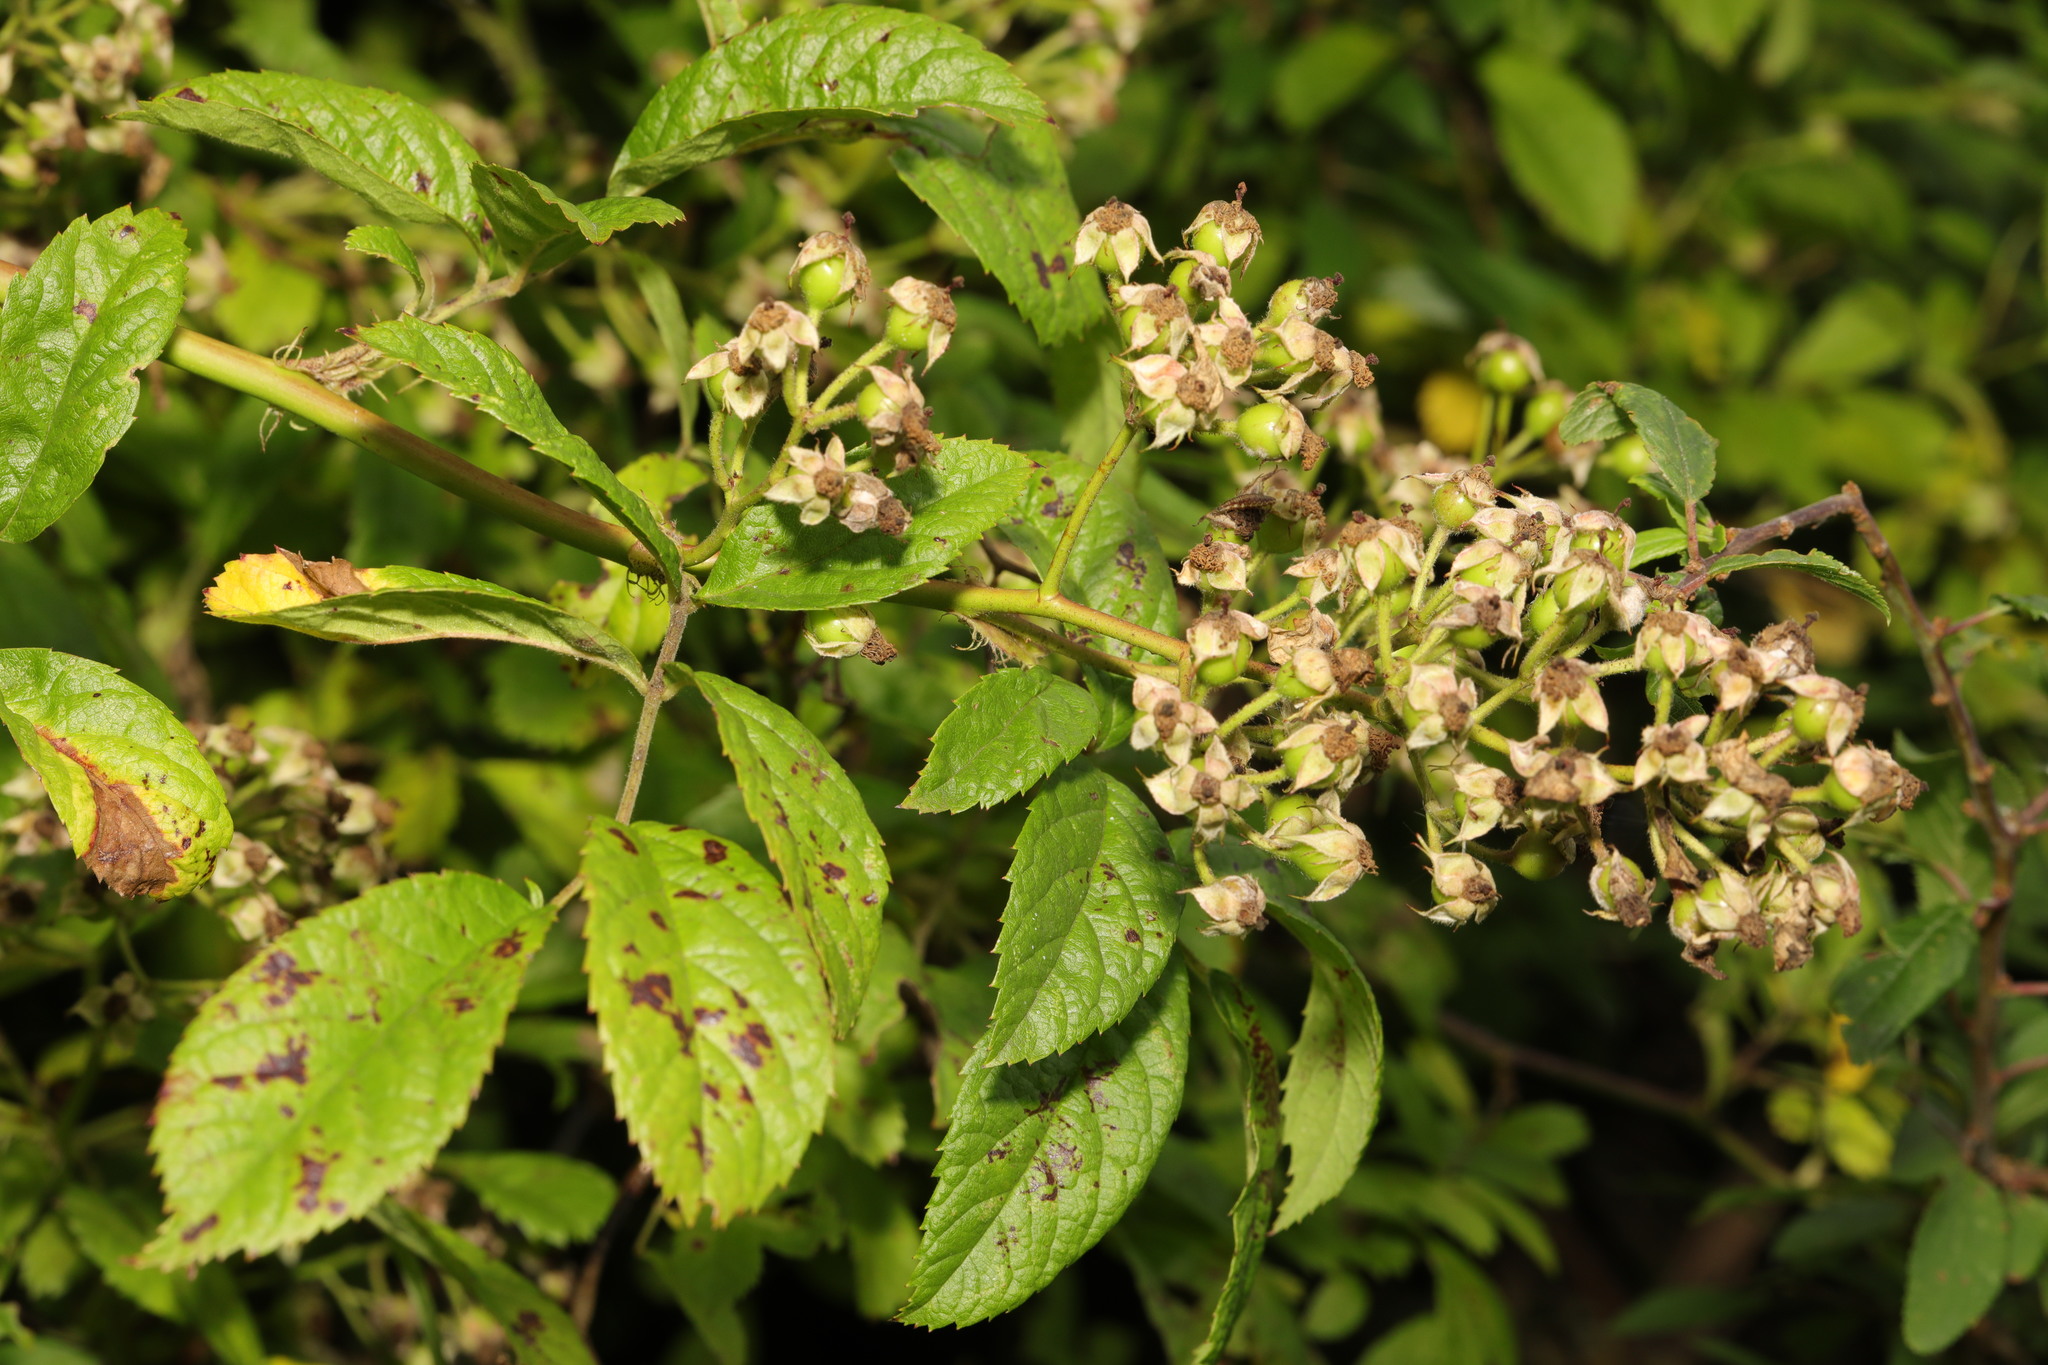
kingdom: Plantae
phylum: Tracheophyta
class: Magnoliopsida
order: Rosales
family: Rosaceae
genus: Rosa
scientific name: Rosa multiflora
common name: Multiflora rose
